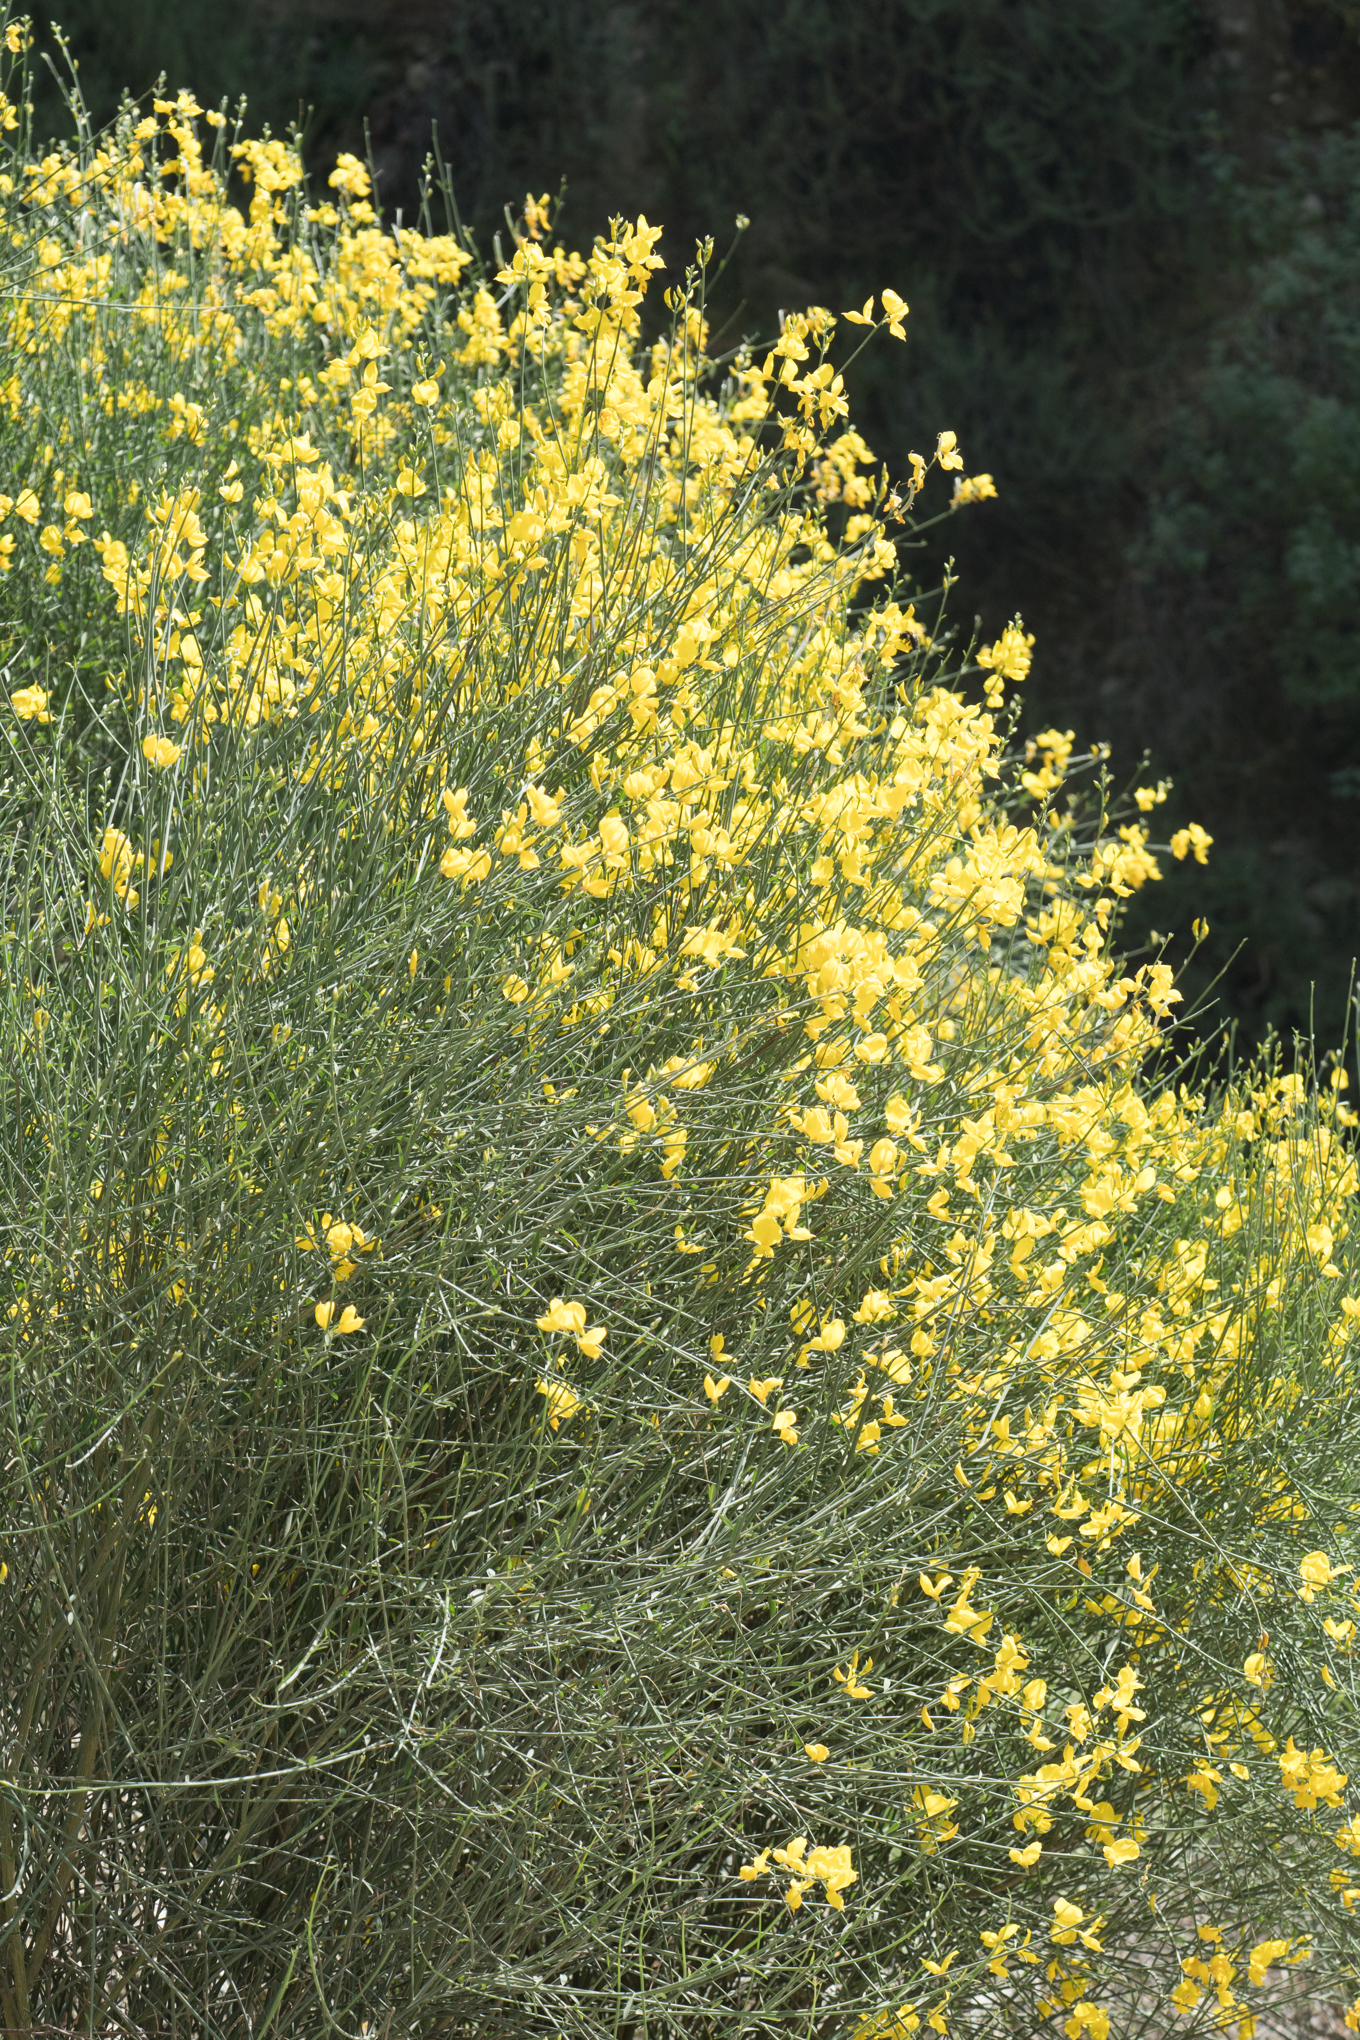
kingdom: Plantae
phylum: Tracheophyta
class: Magnoliopsida
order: Fabales
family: Fabaceae
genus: Spartium
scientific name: Spartium junceum
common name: Spanish broom
